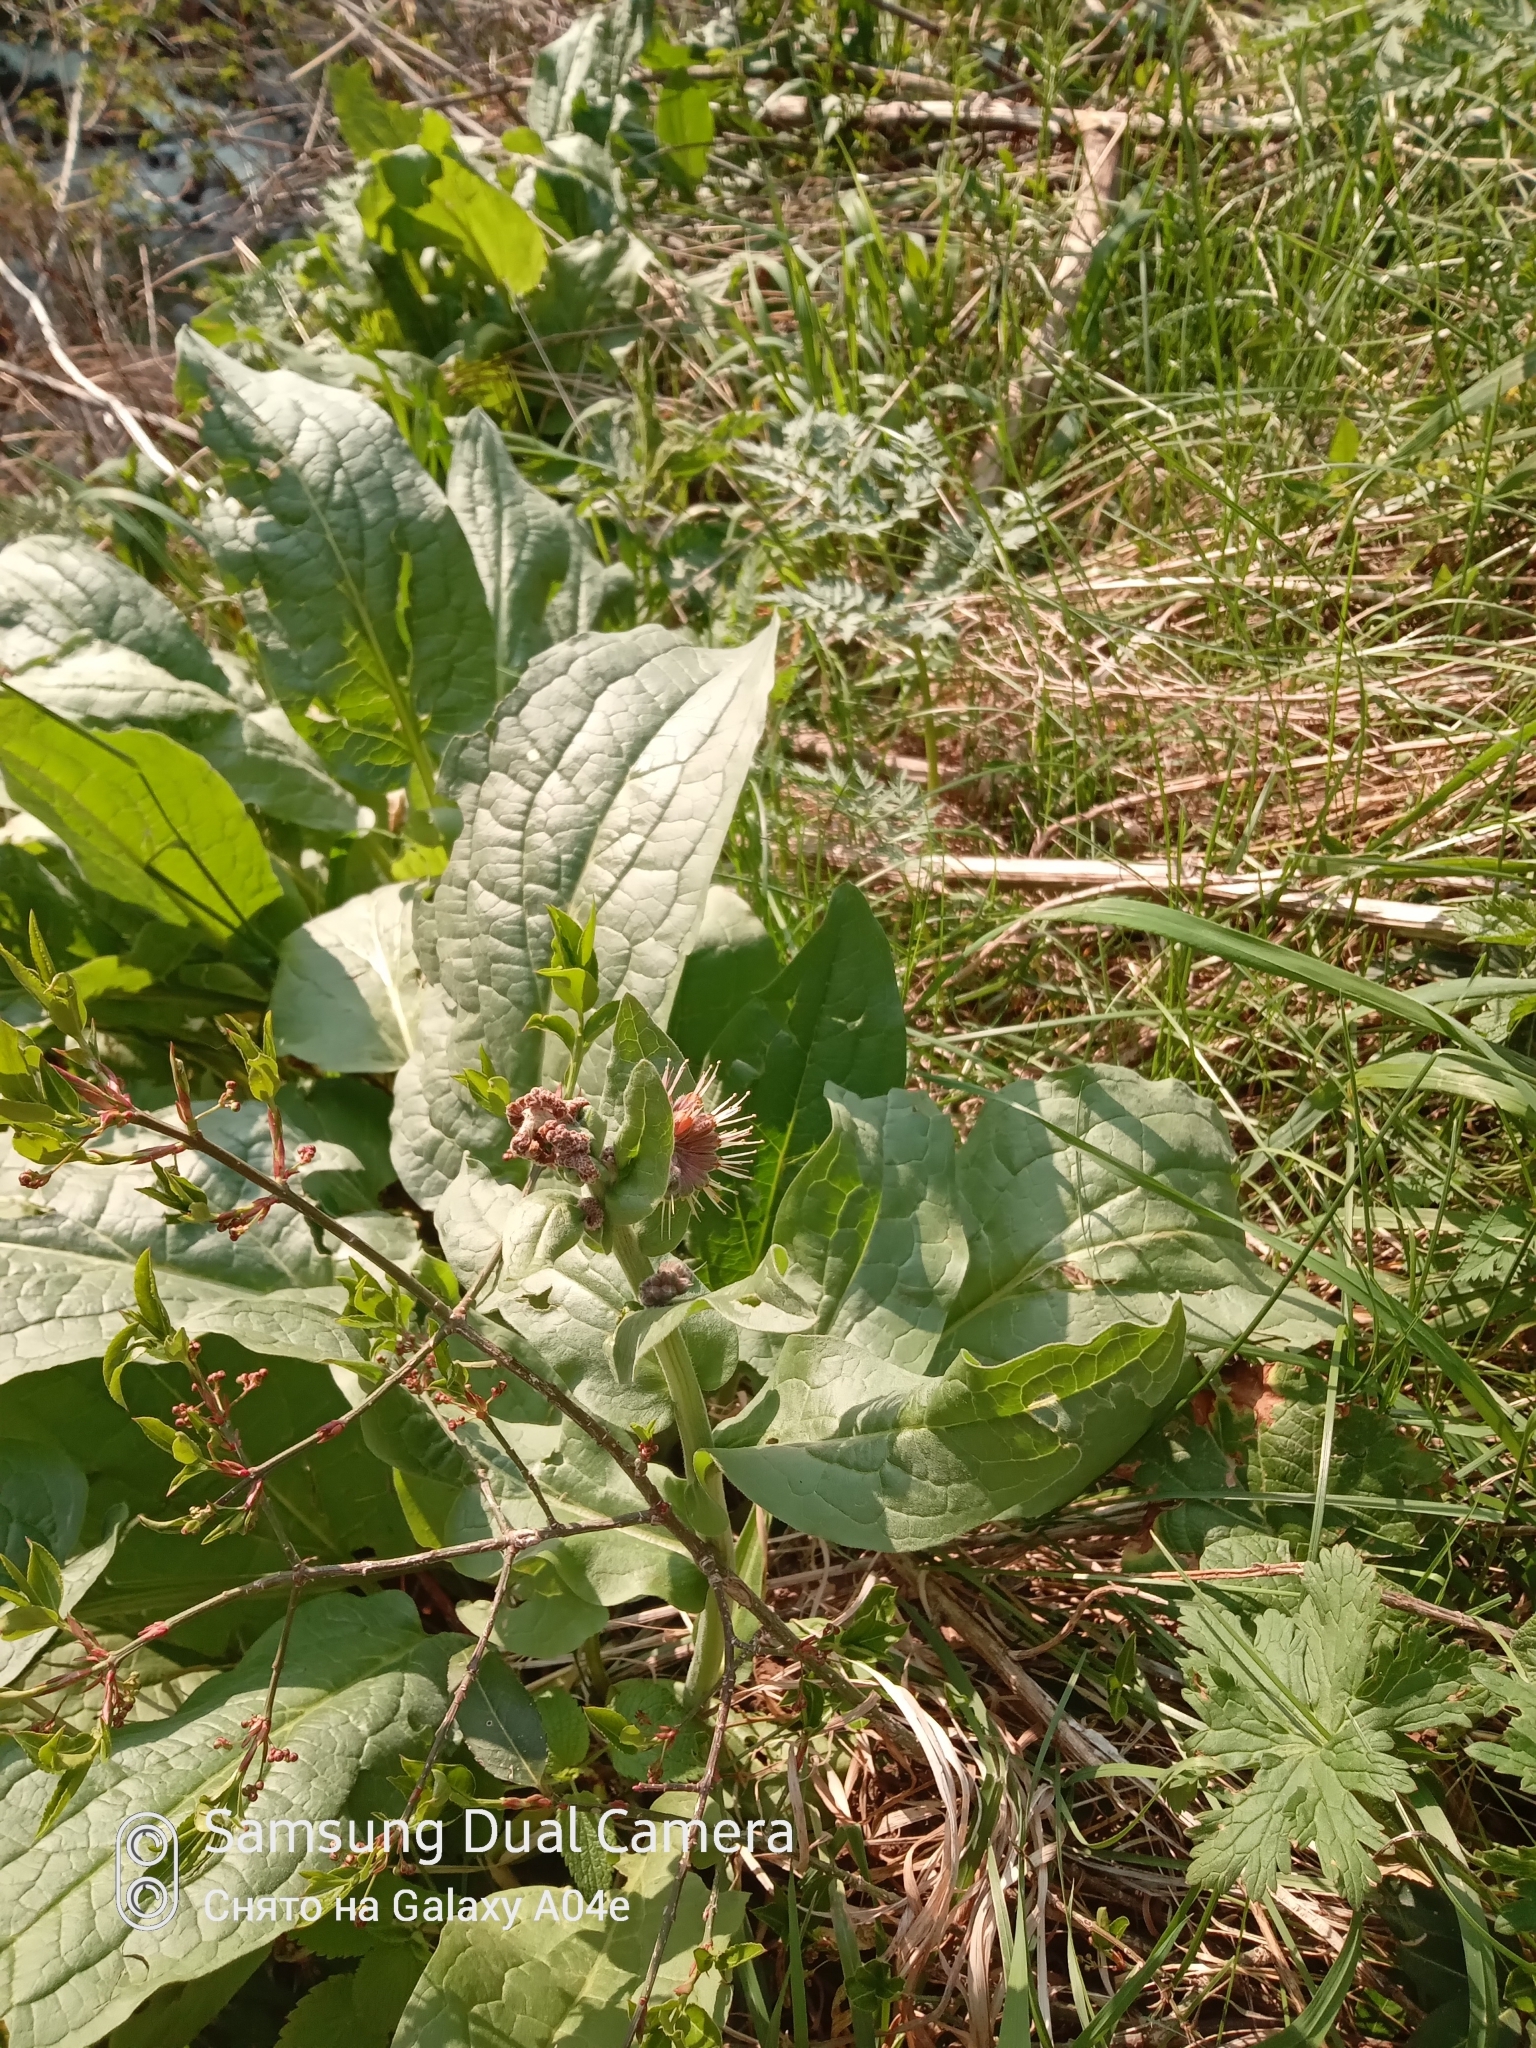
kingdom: Plantae
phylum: Tracheophyta
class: Magnoliopsida
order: Boraginales
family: Boraginaceae
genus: Solenanthus
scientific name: Solenanthus circinnatus
